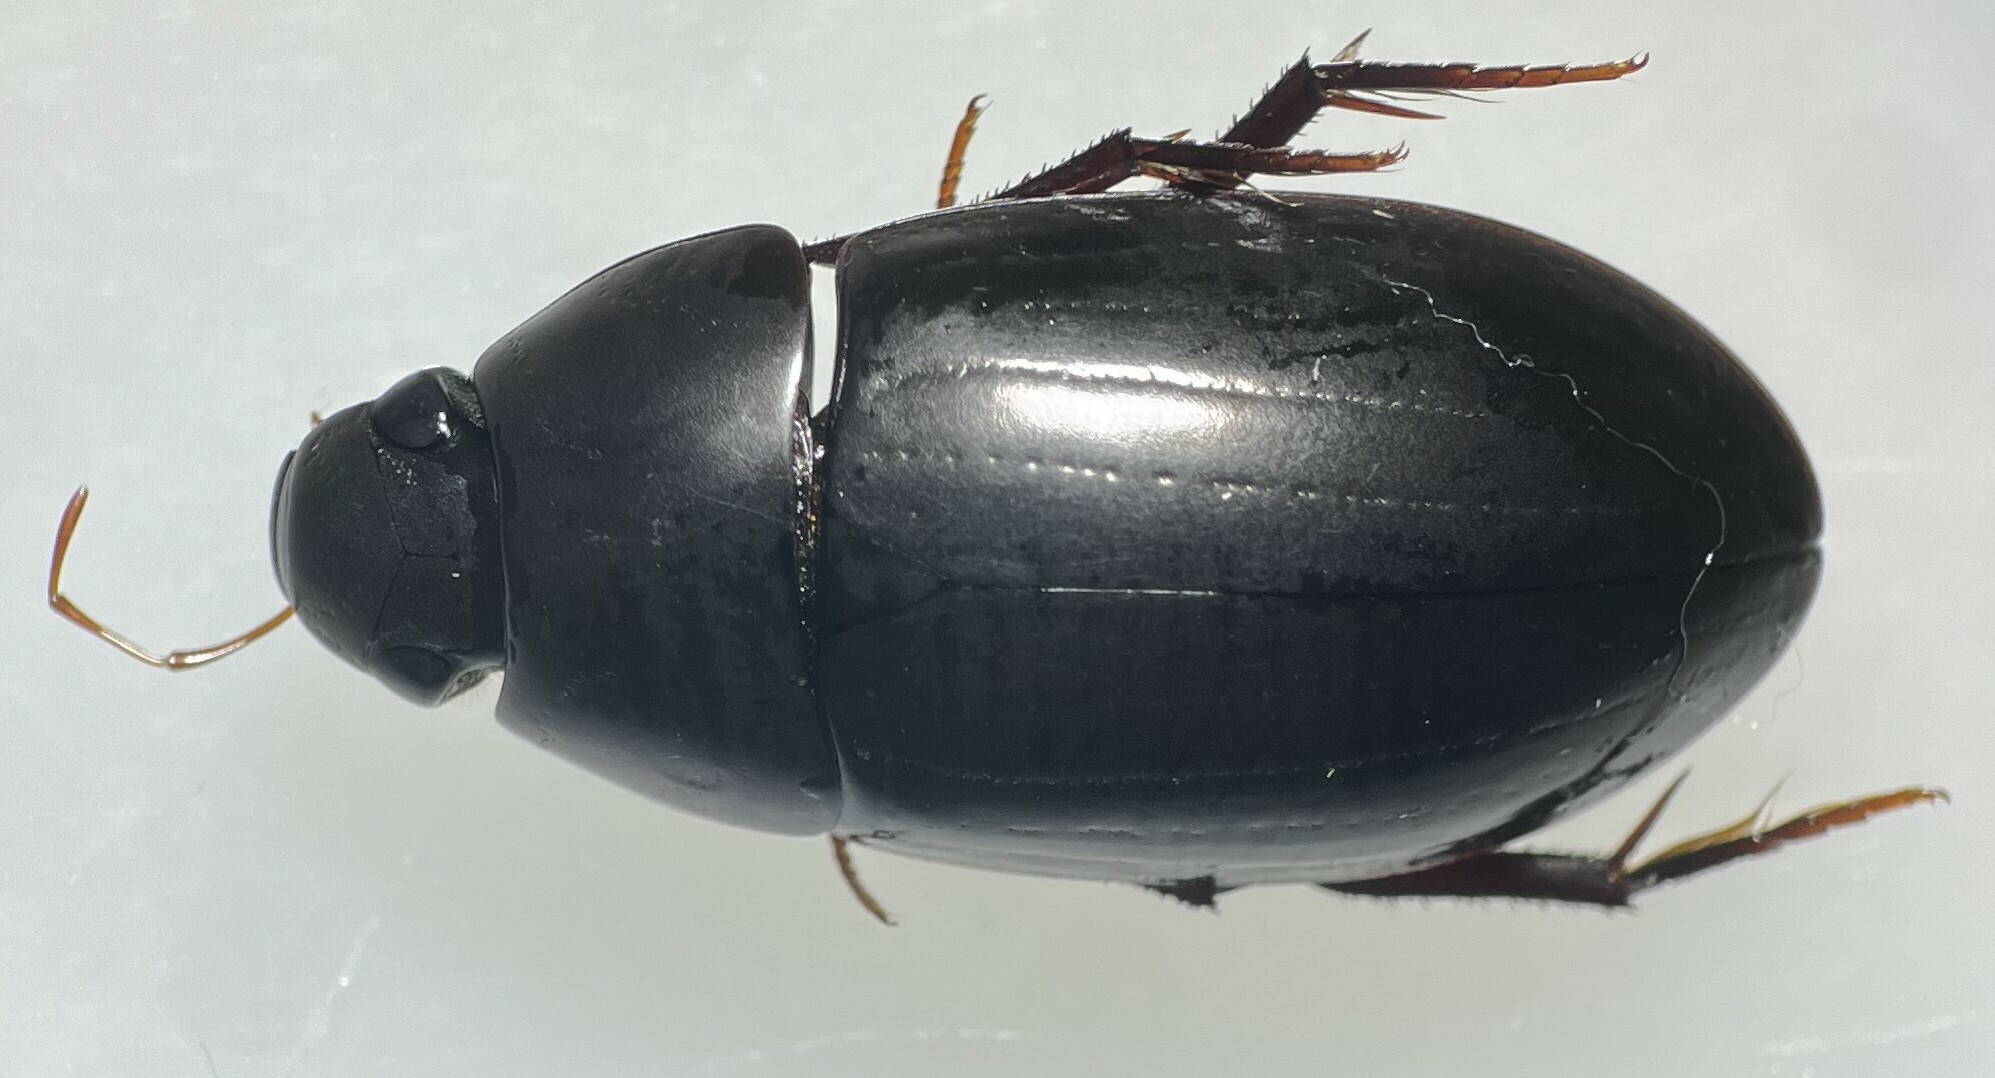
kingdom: Animalia
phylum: Arthropoda
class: Insecta
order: Coleoptera
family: Hydrophilidae
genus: Hydrobiomorpha
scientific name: Hydrobiomorpha casta
